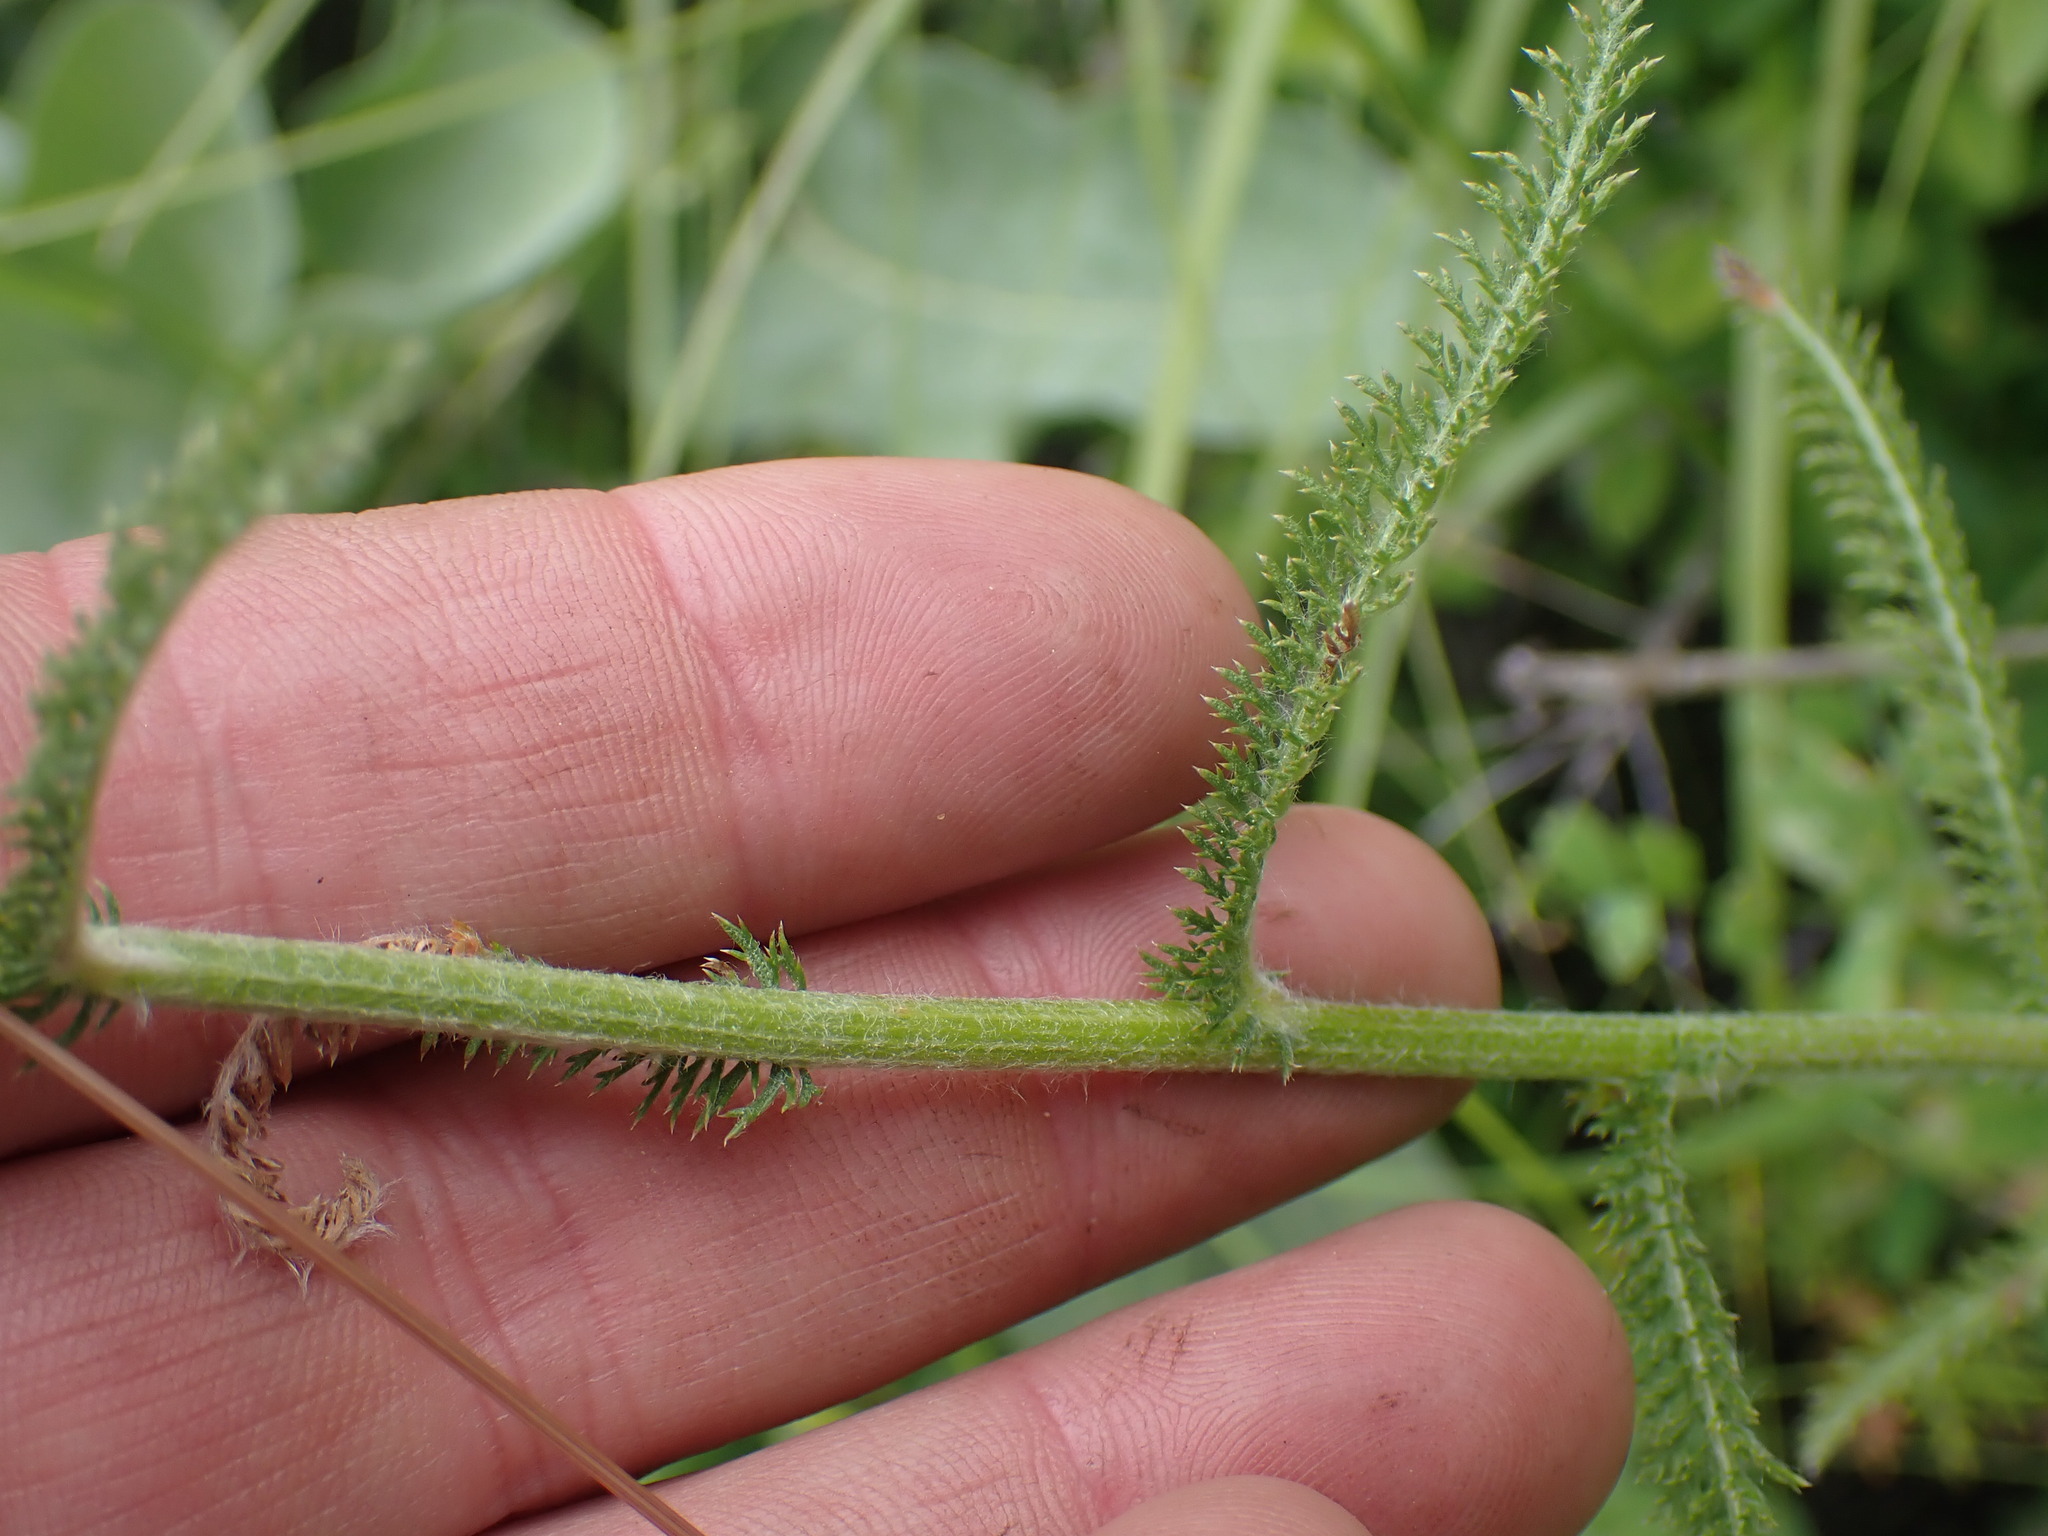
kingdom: Plantae
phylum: Tracheophyta
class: Magnoliopsida
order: Asterales
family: Asteraceae
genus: Achillea
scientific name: Achillea millefolium
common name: Yarrow
